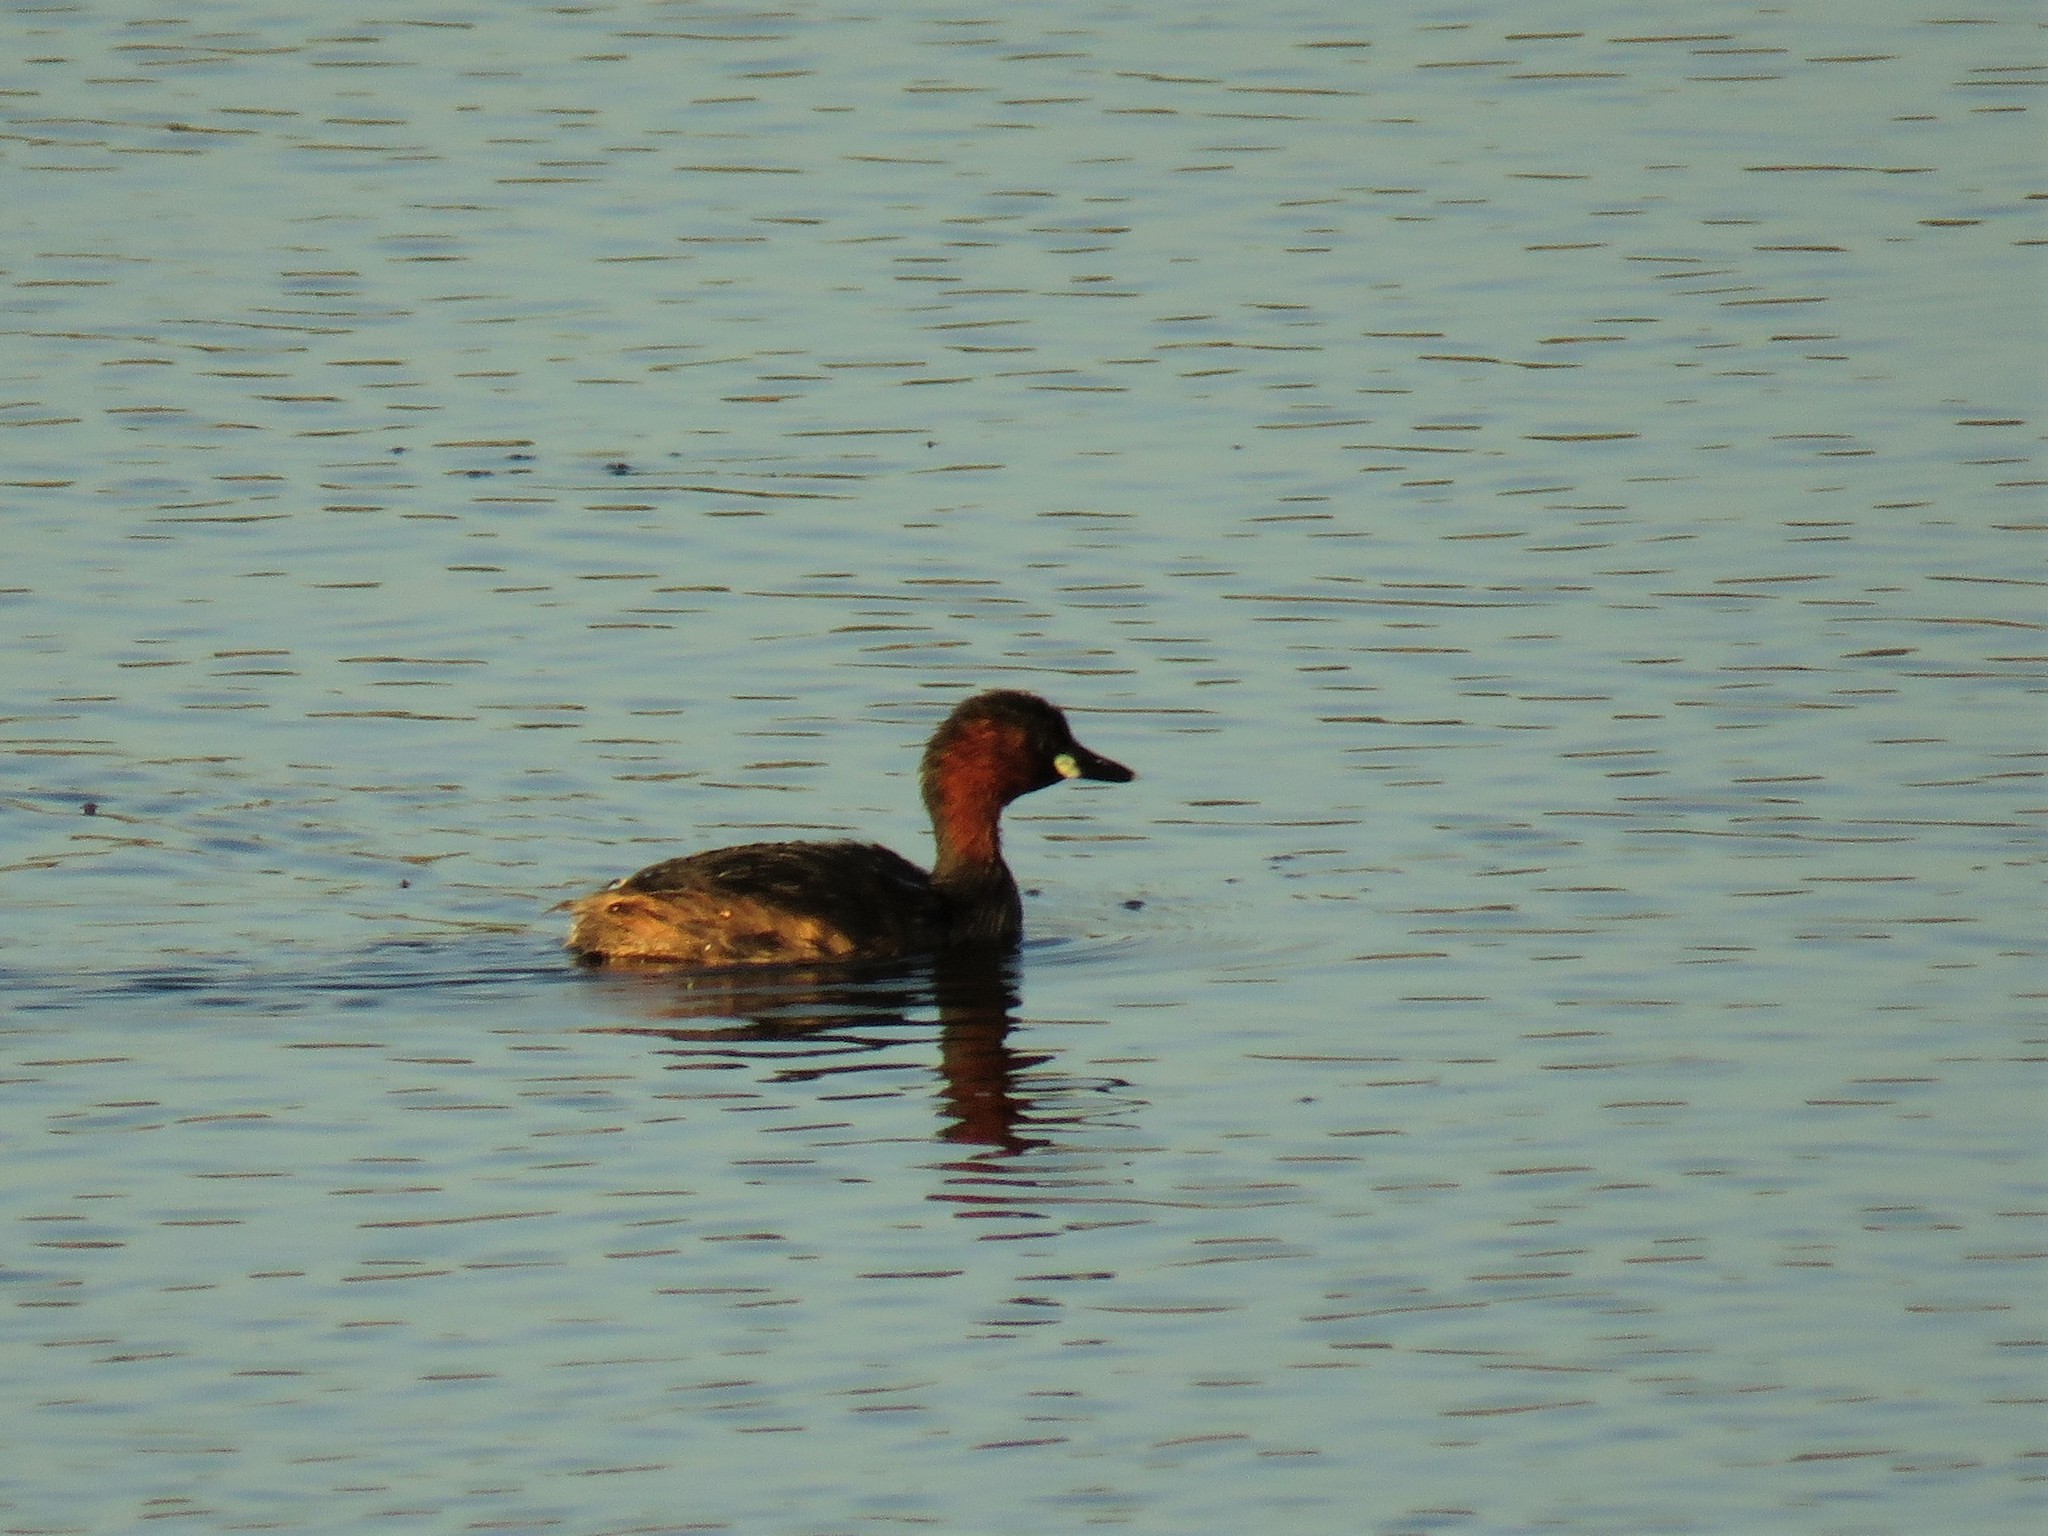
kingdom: Animalia
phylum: Chordata
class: Aves
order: Podicipediformes
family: Podicipedidae
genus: Tachybaptus
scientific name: Tachybaptus ruficollis
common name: Little grebe
